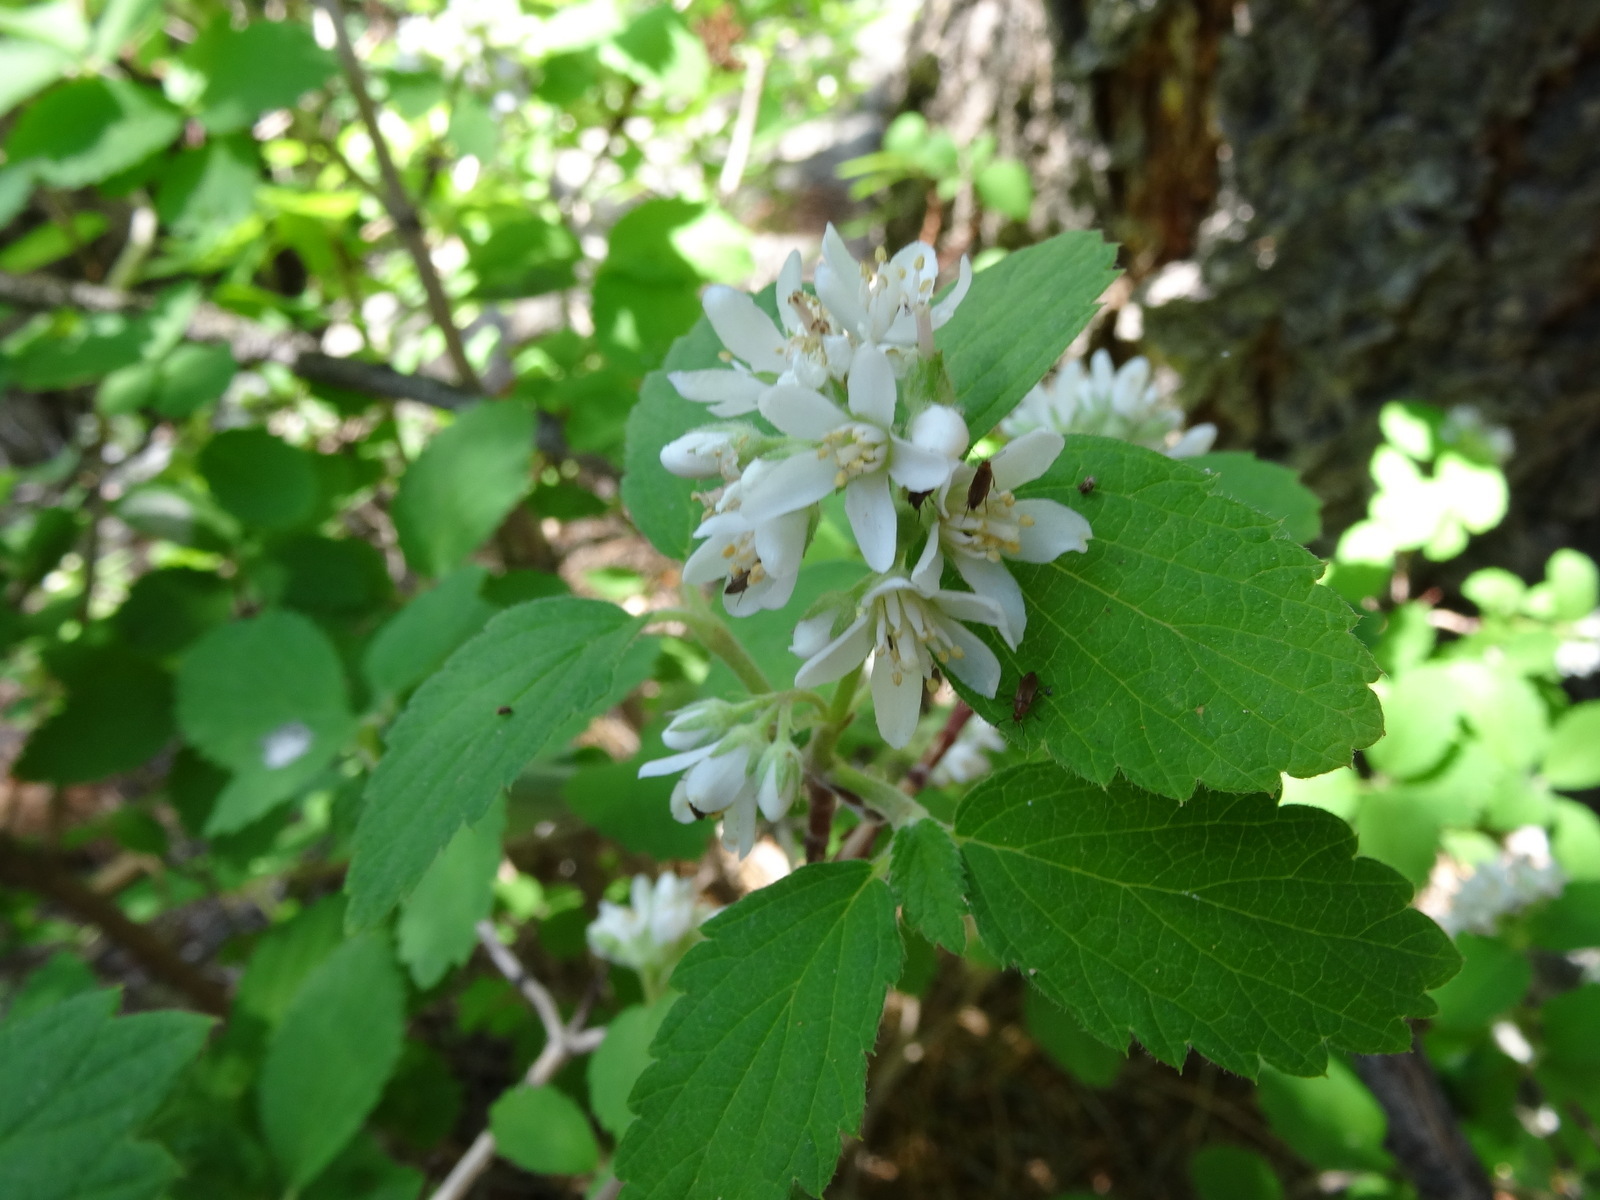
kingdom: Plantae
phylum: Tracheophyta
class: Magnoliopsida
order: Cornales
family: Hydrangeaceae
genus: Jamesia
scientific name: Jamesia americana
